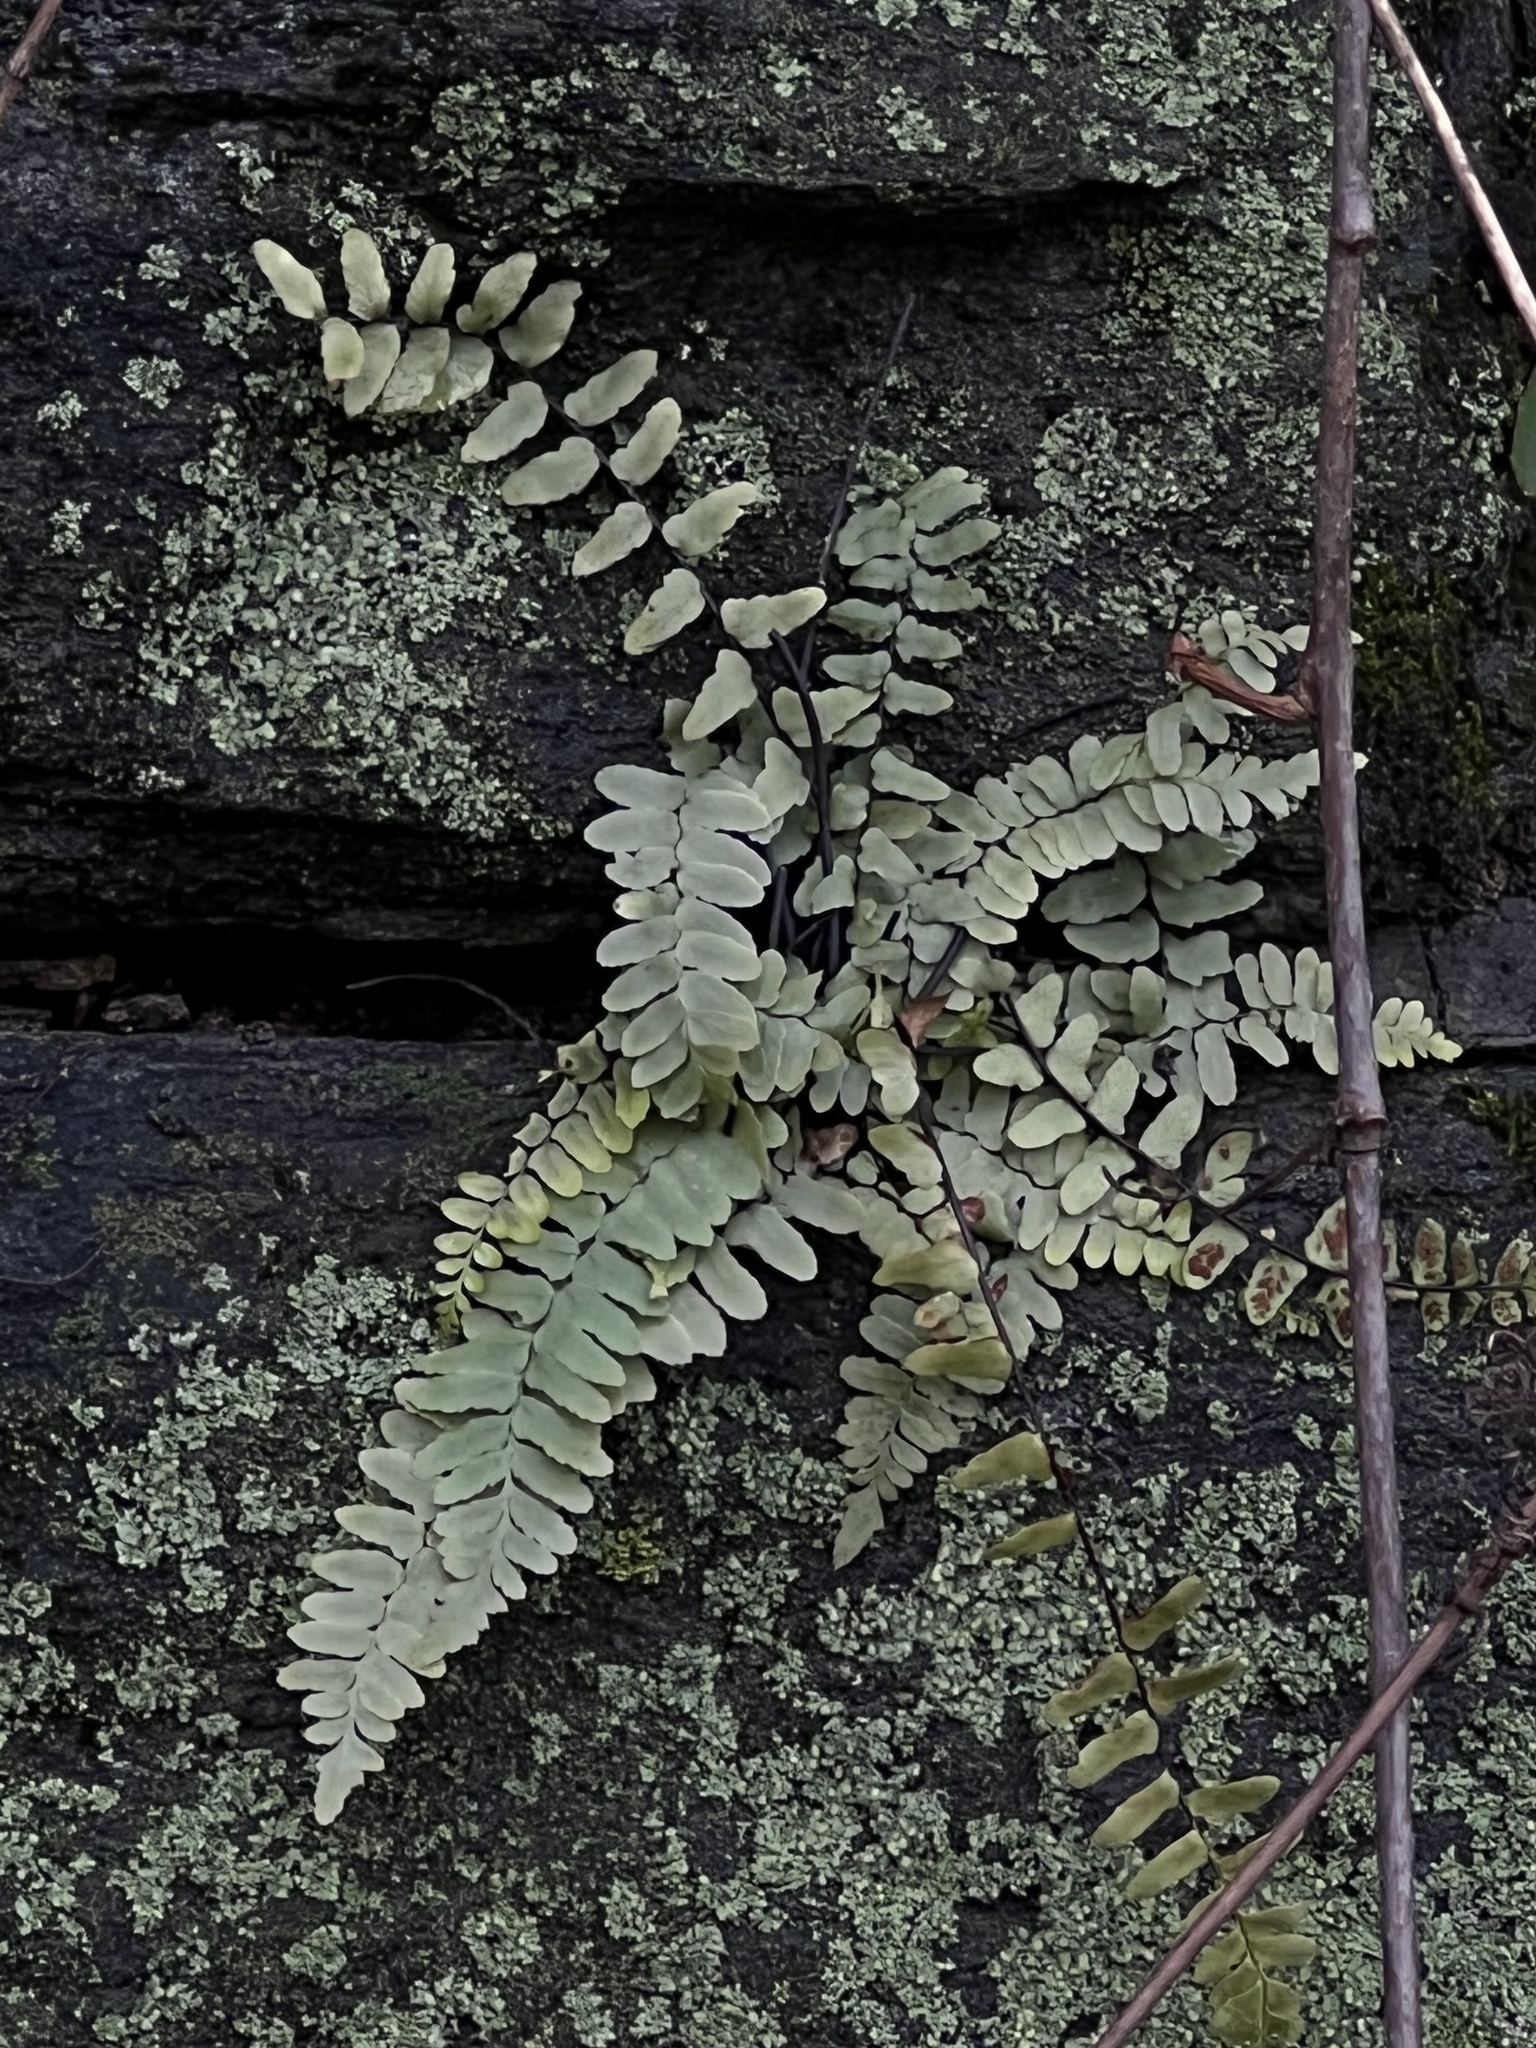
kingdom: Plantae
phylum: Tracheophyta
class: Polypodiopsida
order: Polypodiales
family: Aspleniaceae
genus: Asplenium
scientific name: Asplenium platyneuron
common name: Ebony spleenwort
